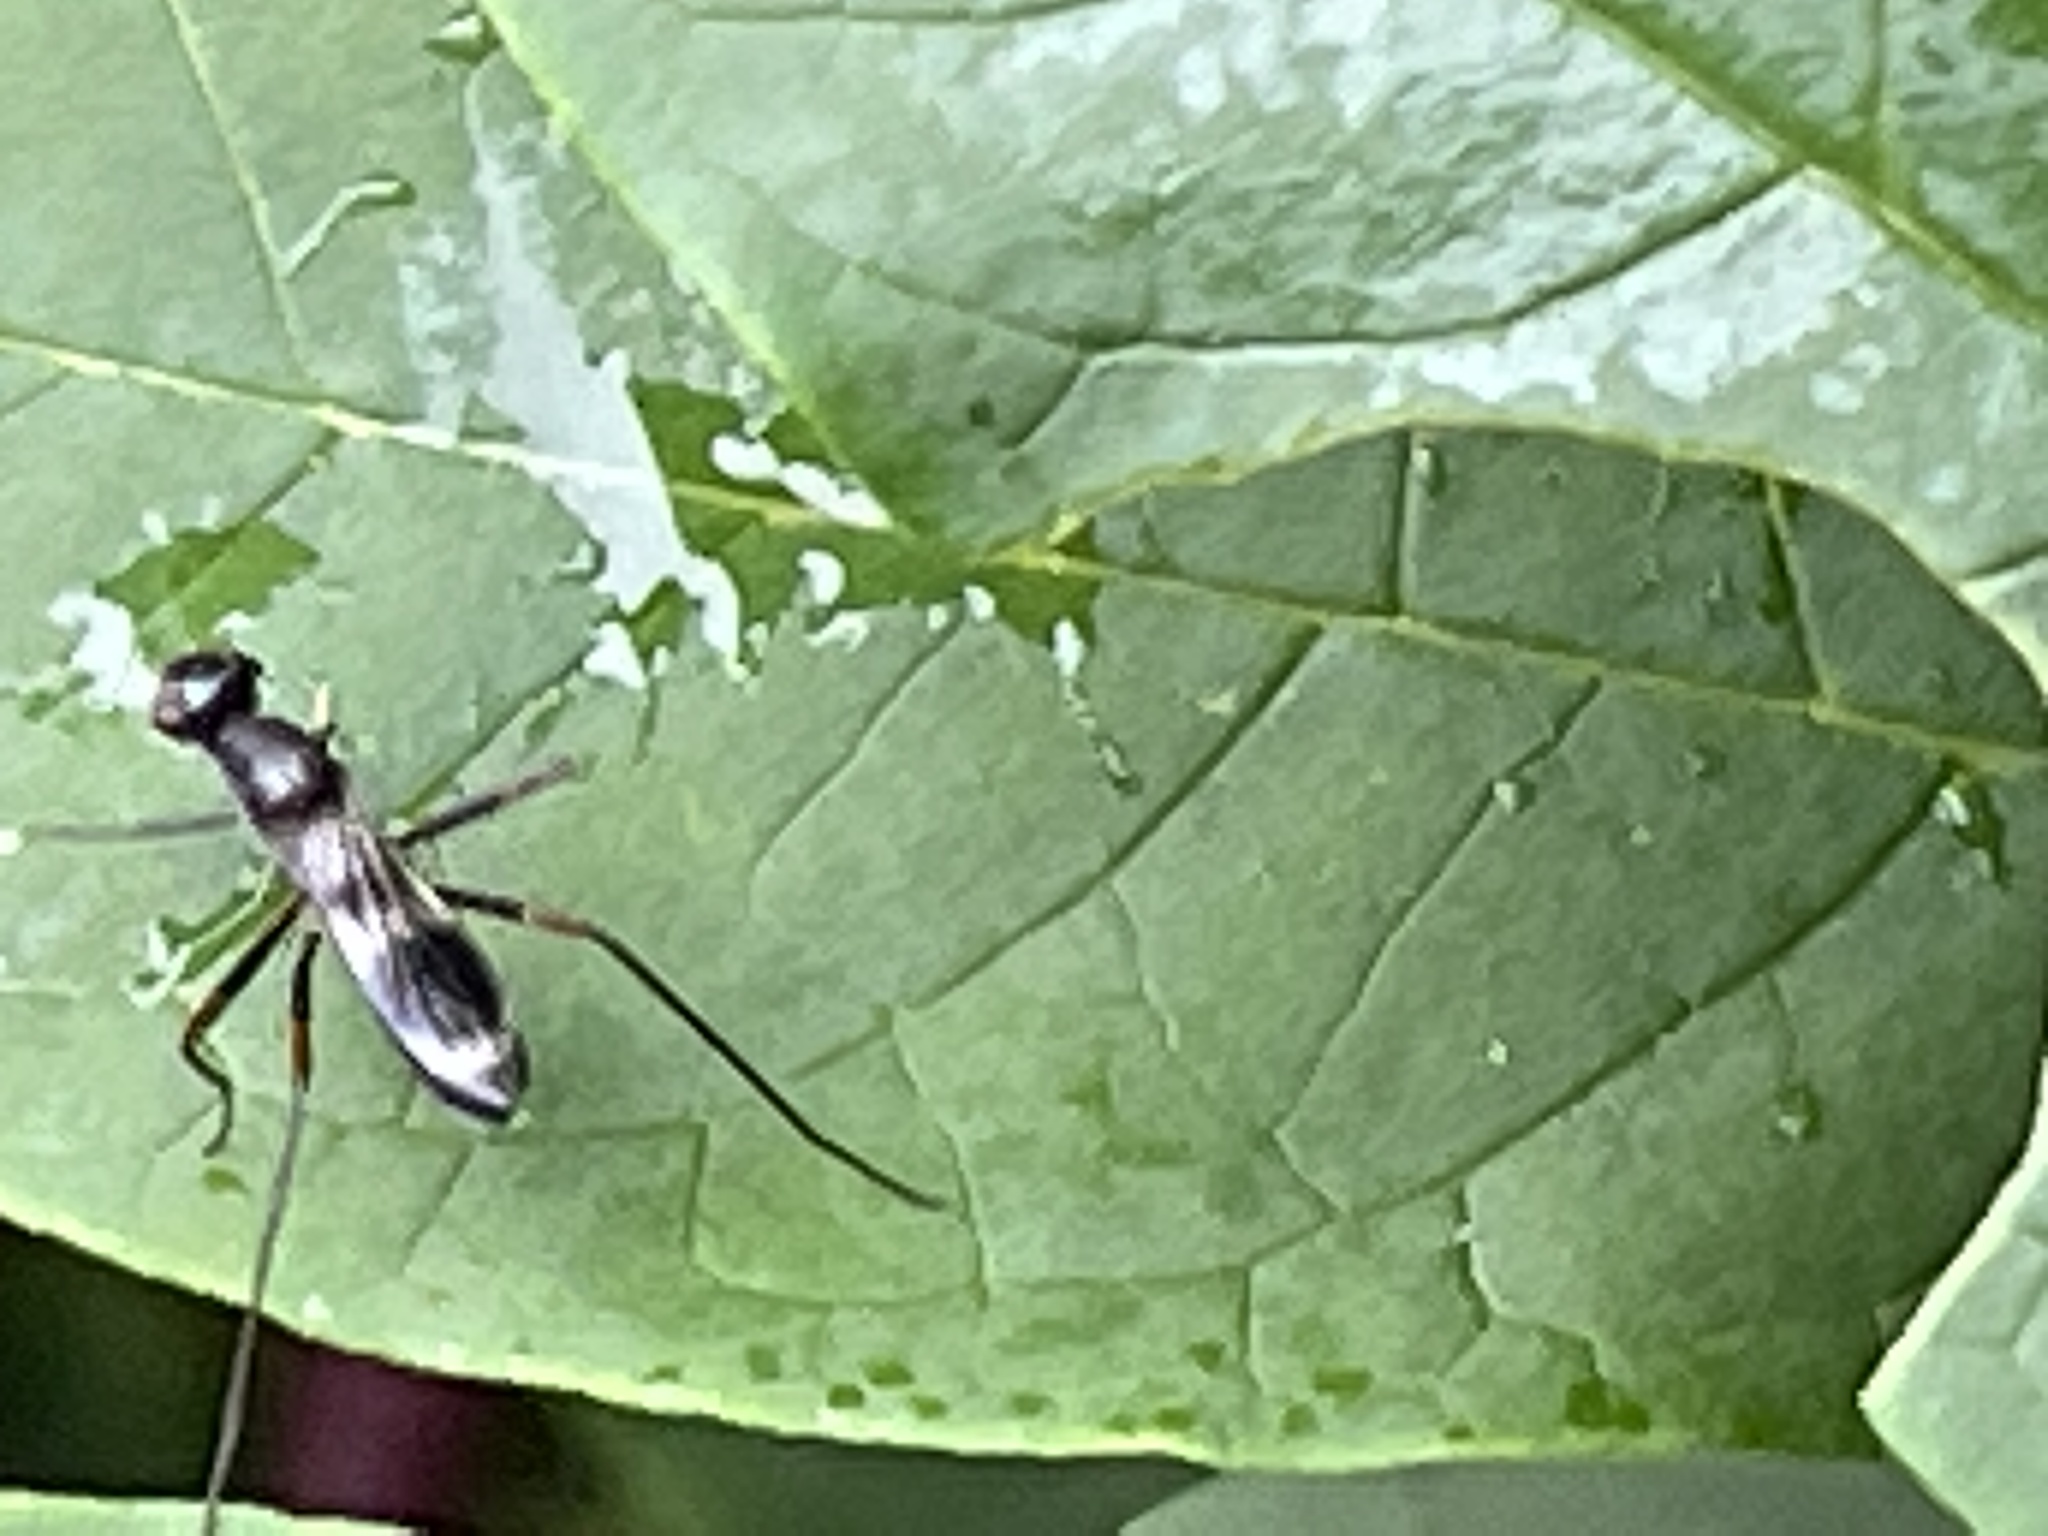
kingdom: Animalia
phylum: Arthropoda
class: Insecta
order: Diptera
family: Micropezidae
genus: Taeniaptera
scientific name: Taeniaptera trivittata
